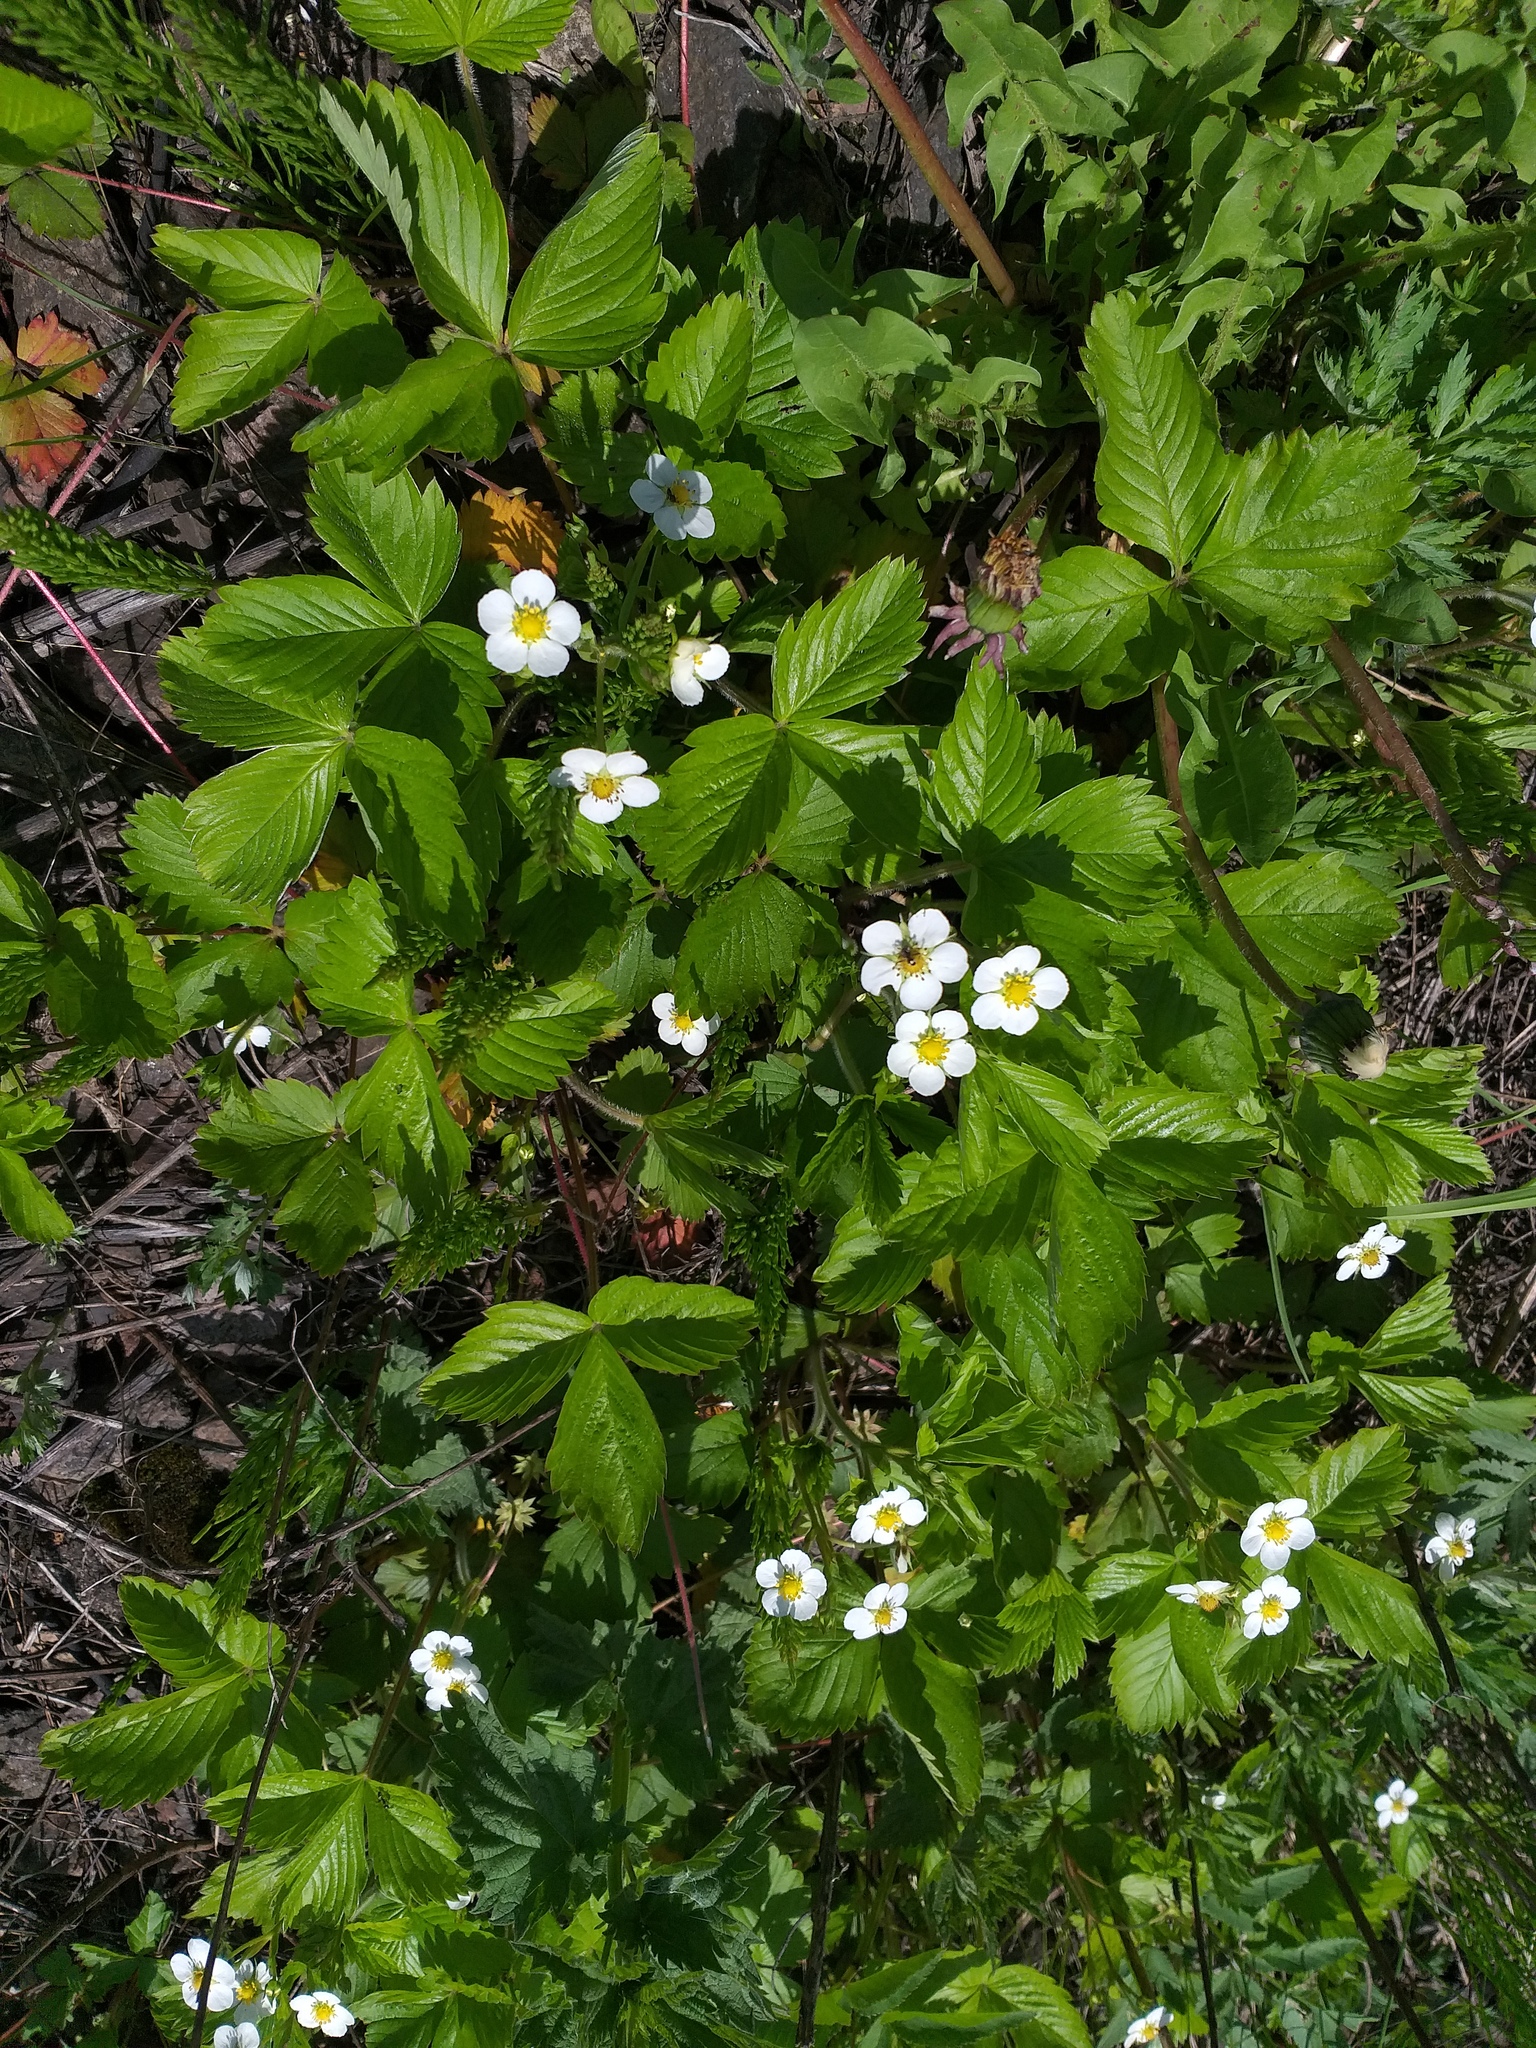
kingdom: Plantae
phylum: Tracheophyta
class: Magnoliopsida
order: Rosales
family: Rosaceae
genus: Fragaria
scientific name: Fragaria vesca
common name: Wild strawberry
